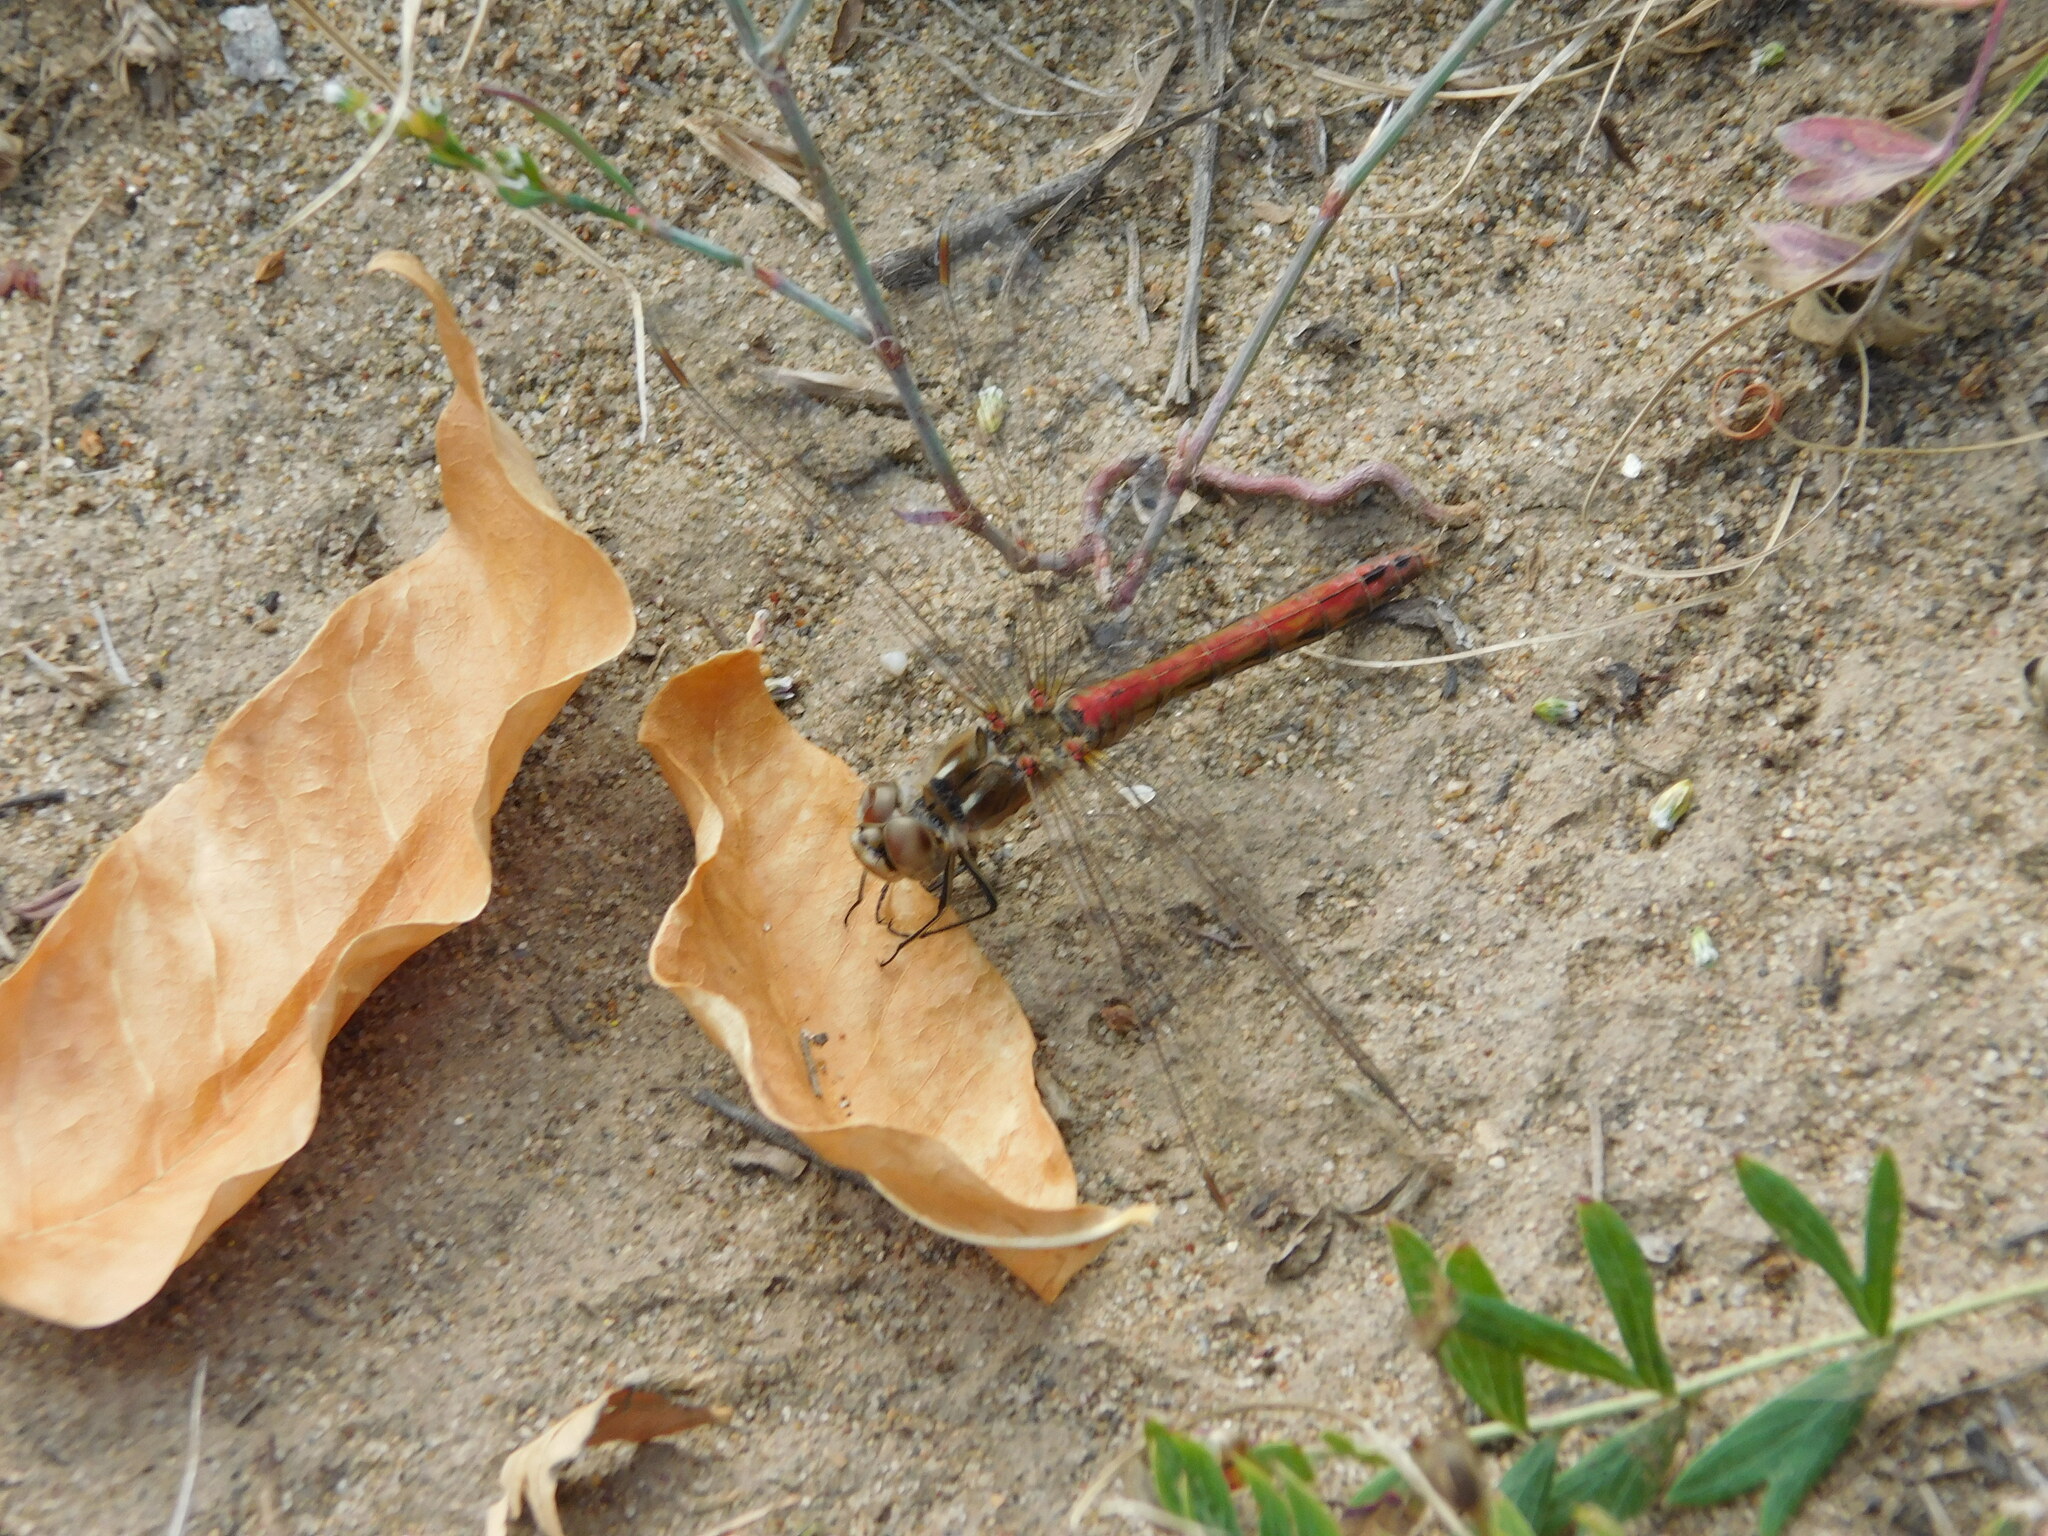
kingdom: Animalia
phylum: Arthropoda
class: Insecta
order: Odonata
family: Libellulidae
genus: Sympetrum
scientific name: Sympetrum vulgatum
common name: Vagrant darter
